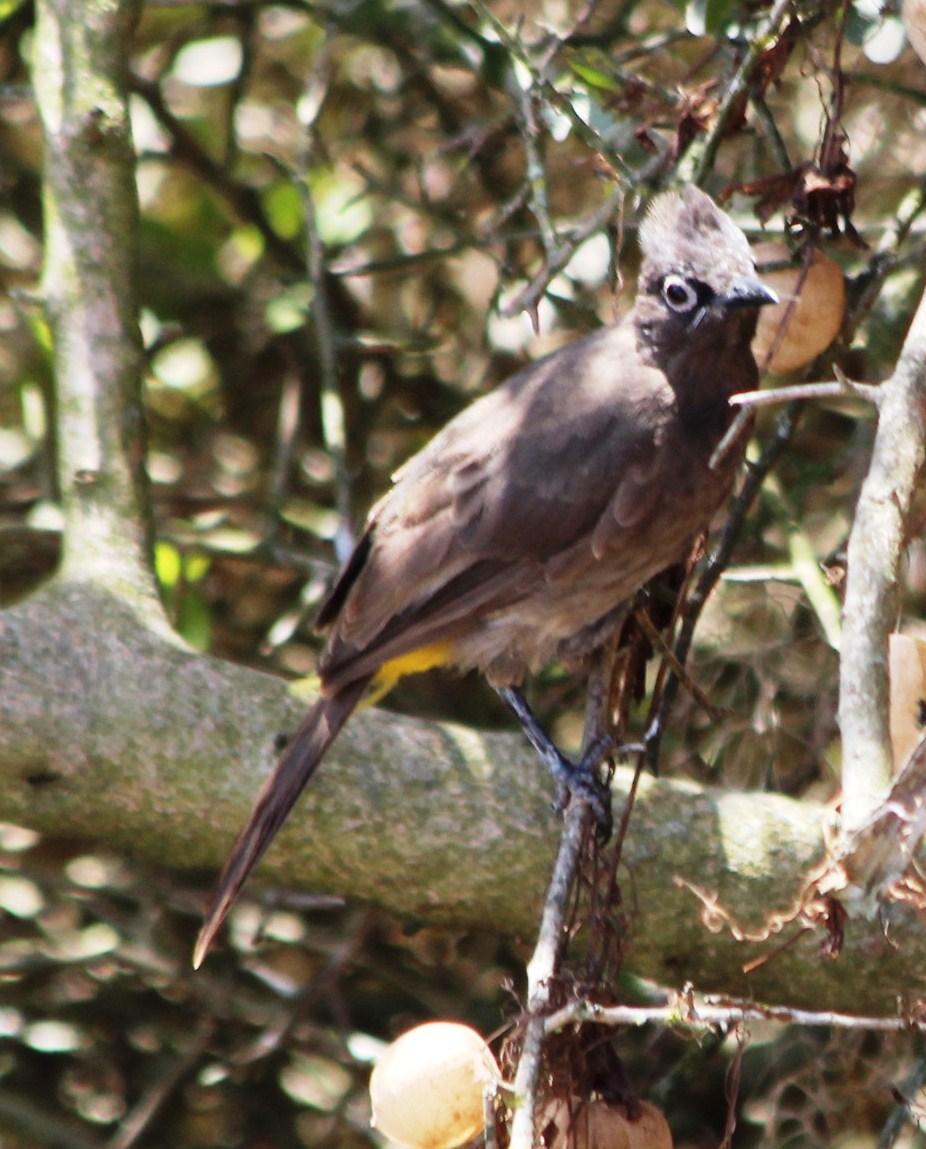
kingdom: Animalia
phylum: Chordata
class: Aves
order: Passeriformes
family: Pycnonotidae
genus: Pycnonotus
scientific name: Pycnonotus capensis
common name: Cape bulbul
